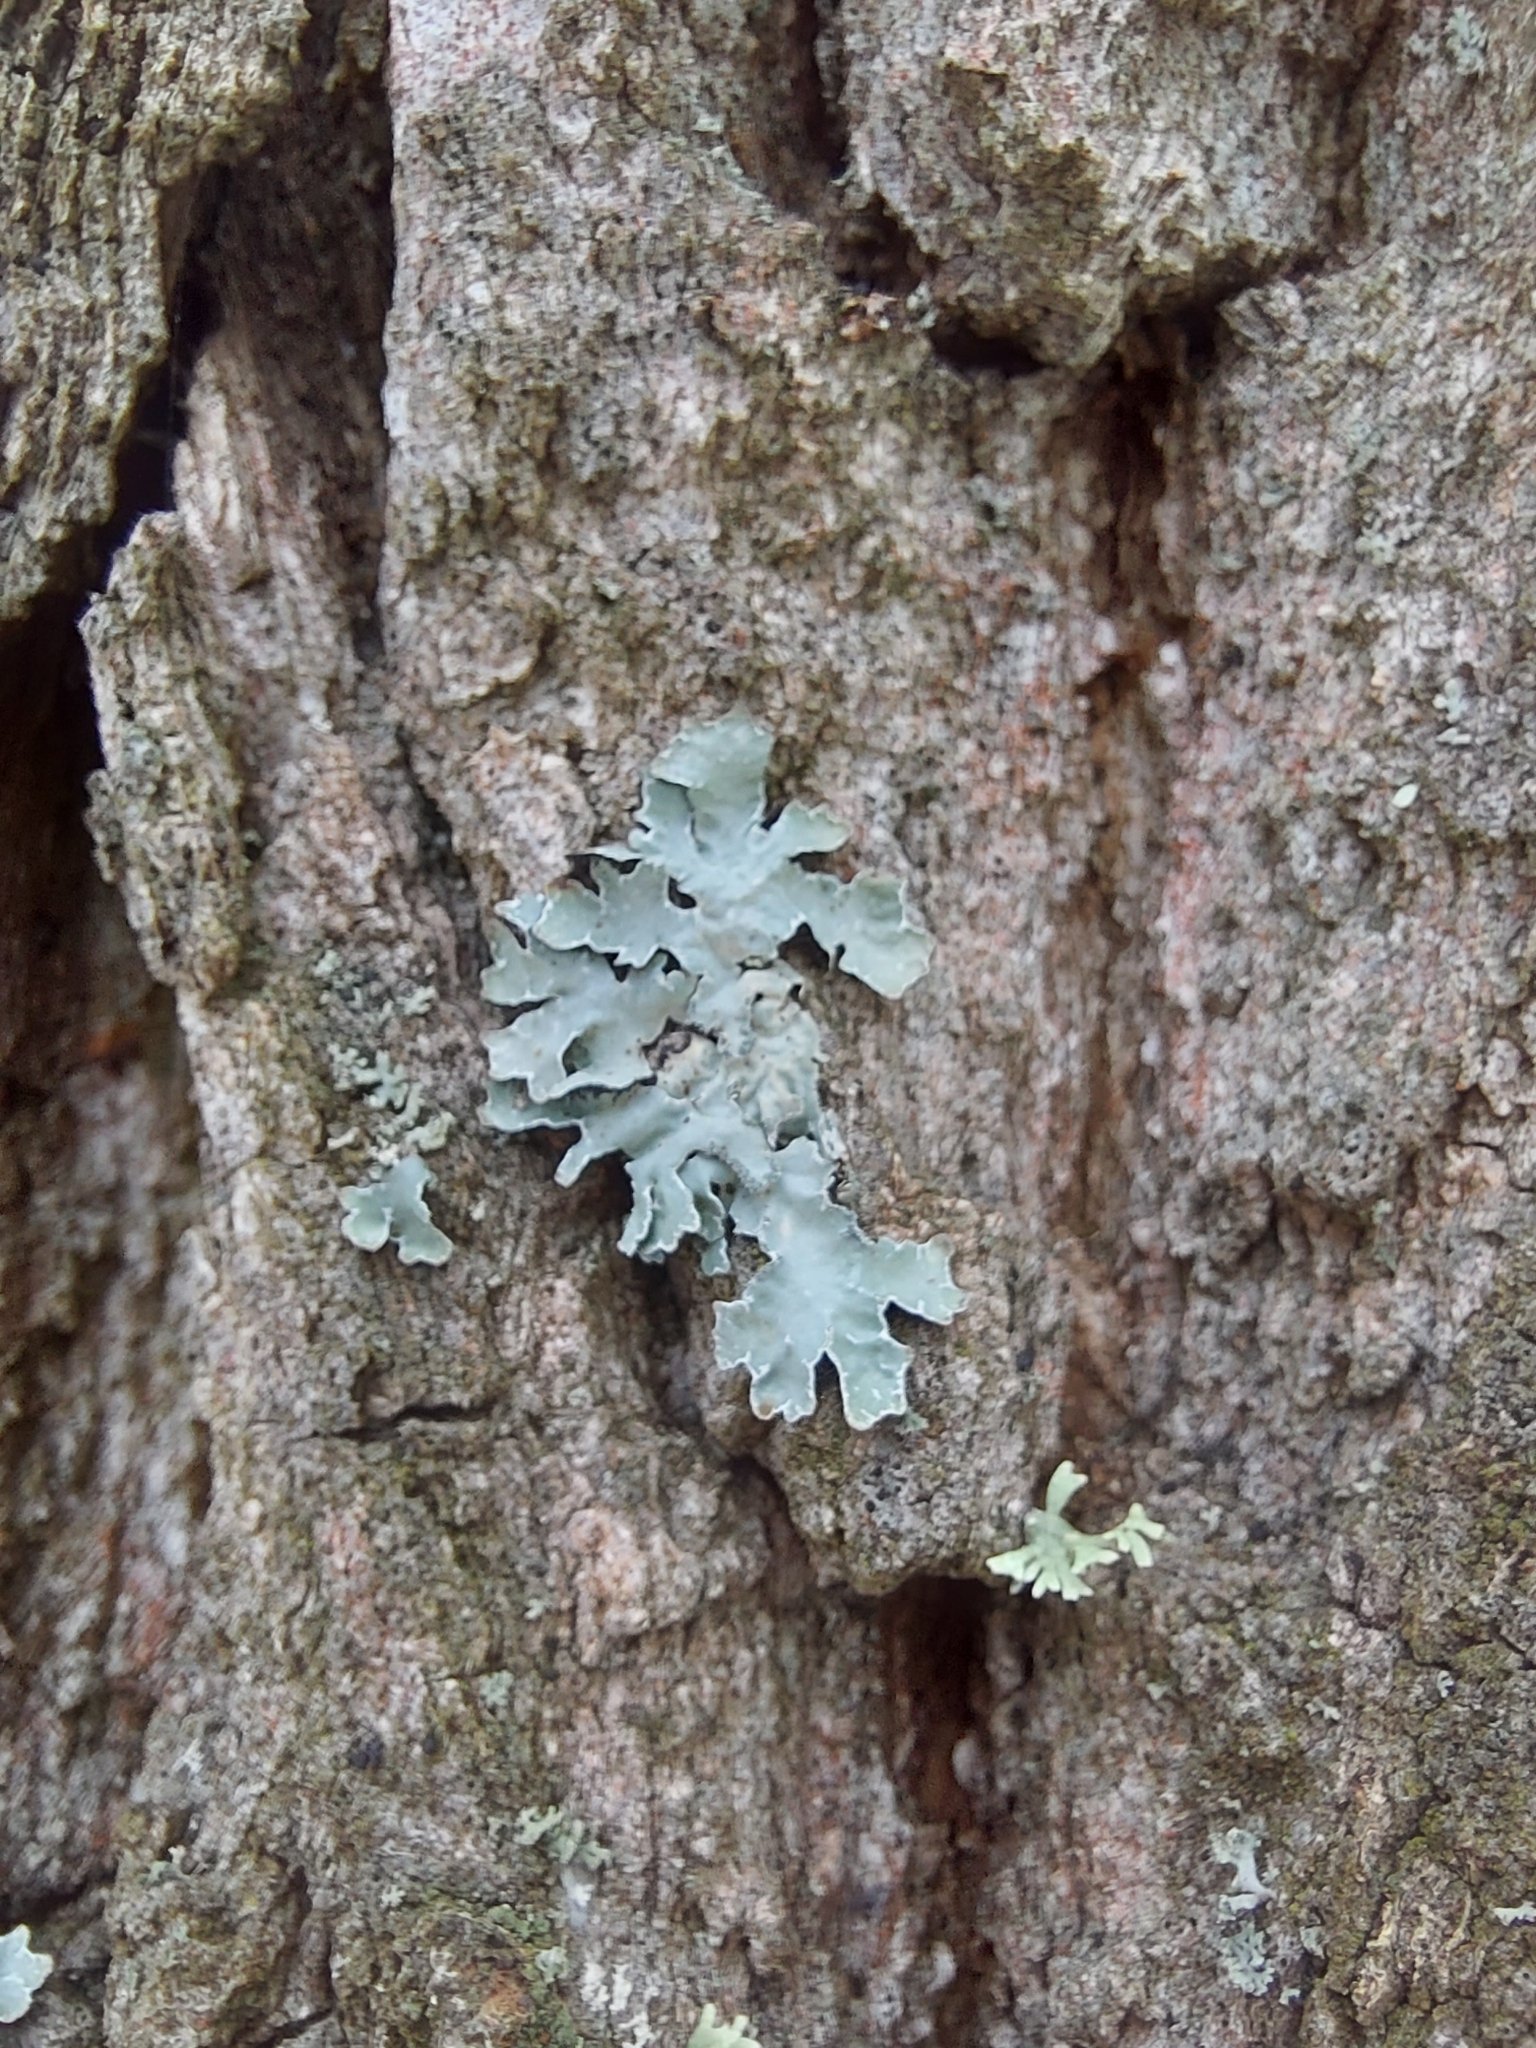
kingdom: Fungi
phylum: Ascomycota
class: Lecanoromycetes
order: Lecanorales
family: Parmeliaceae
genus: Parmelia
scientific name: Parmelia sulcata
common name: Netted shield lichen
